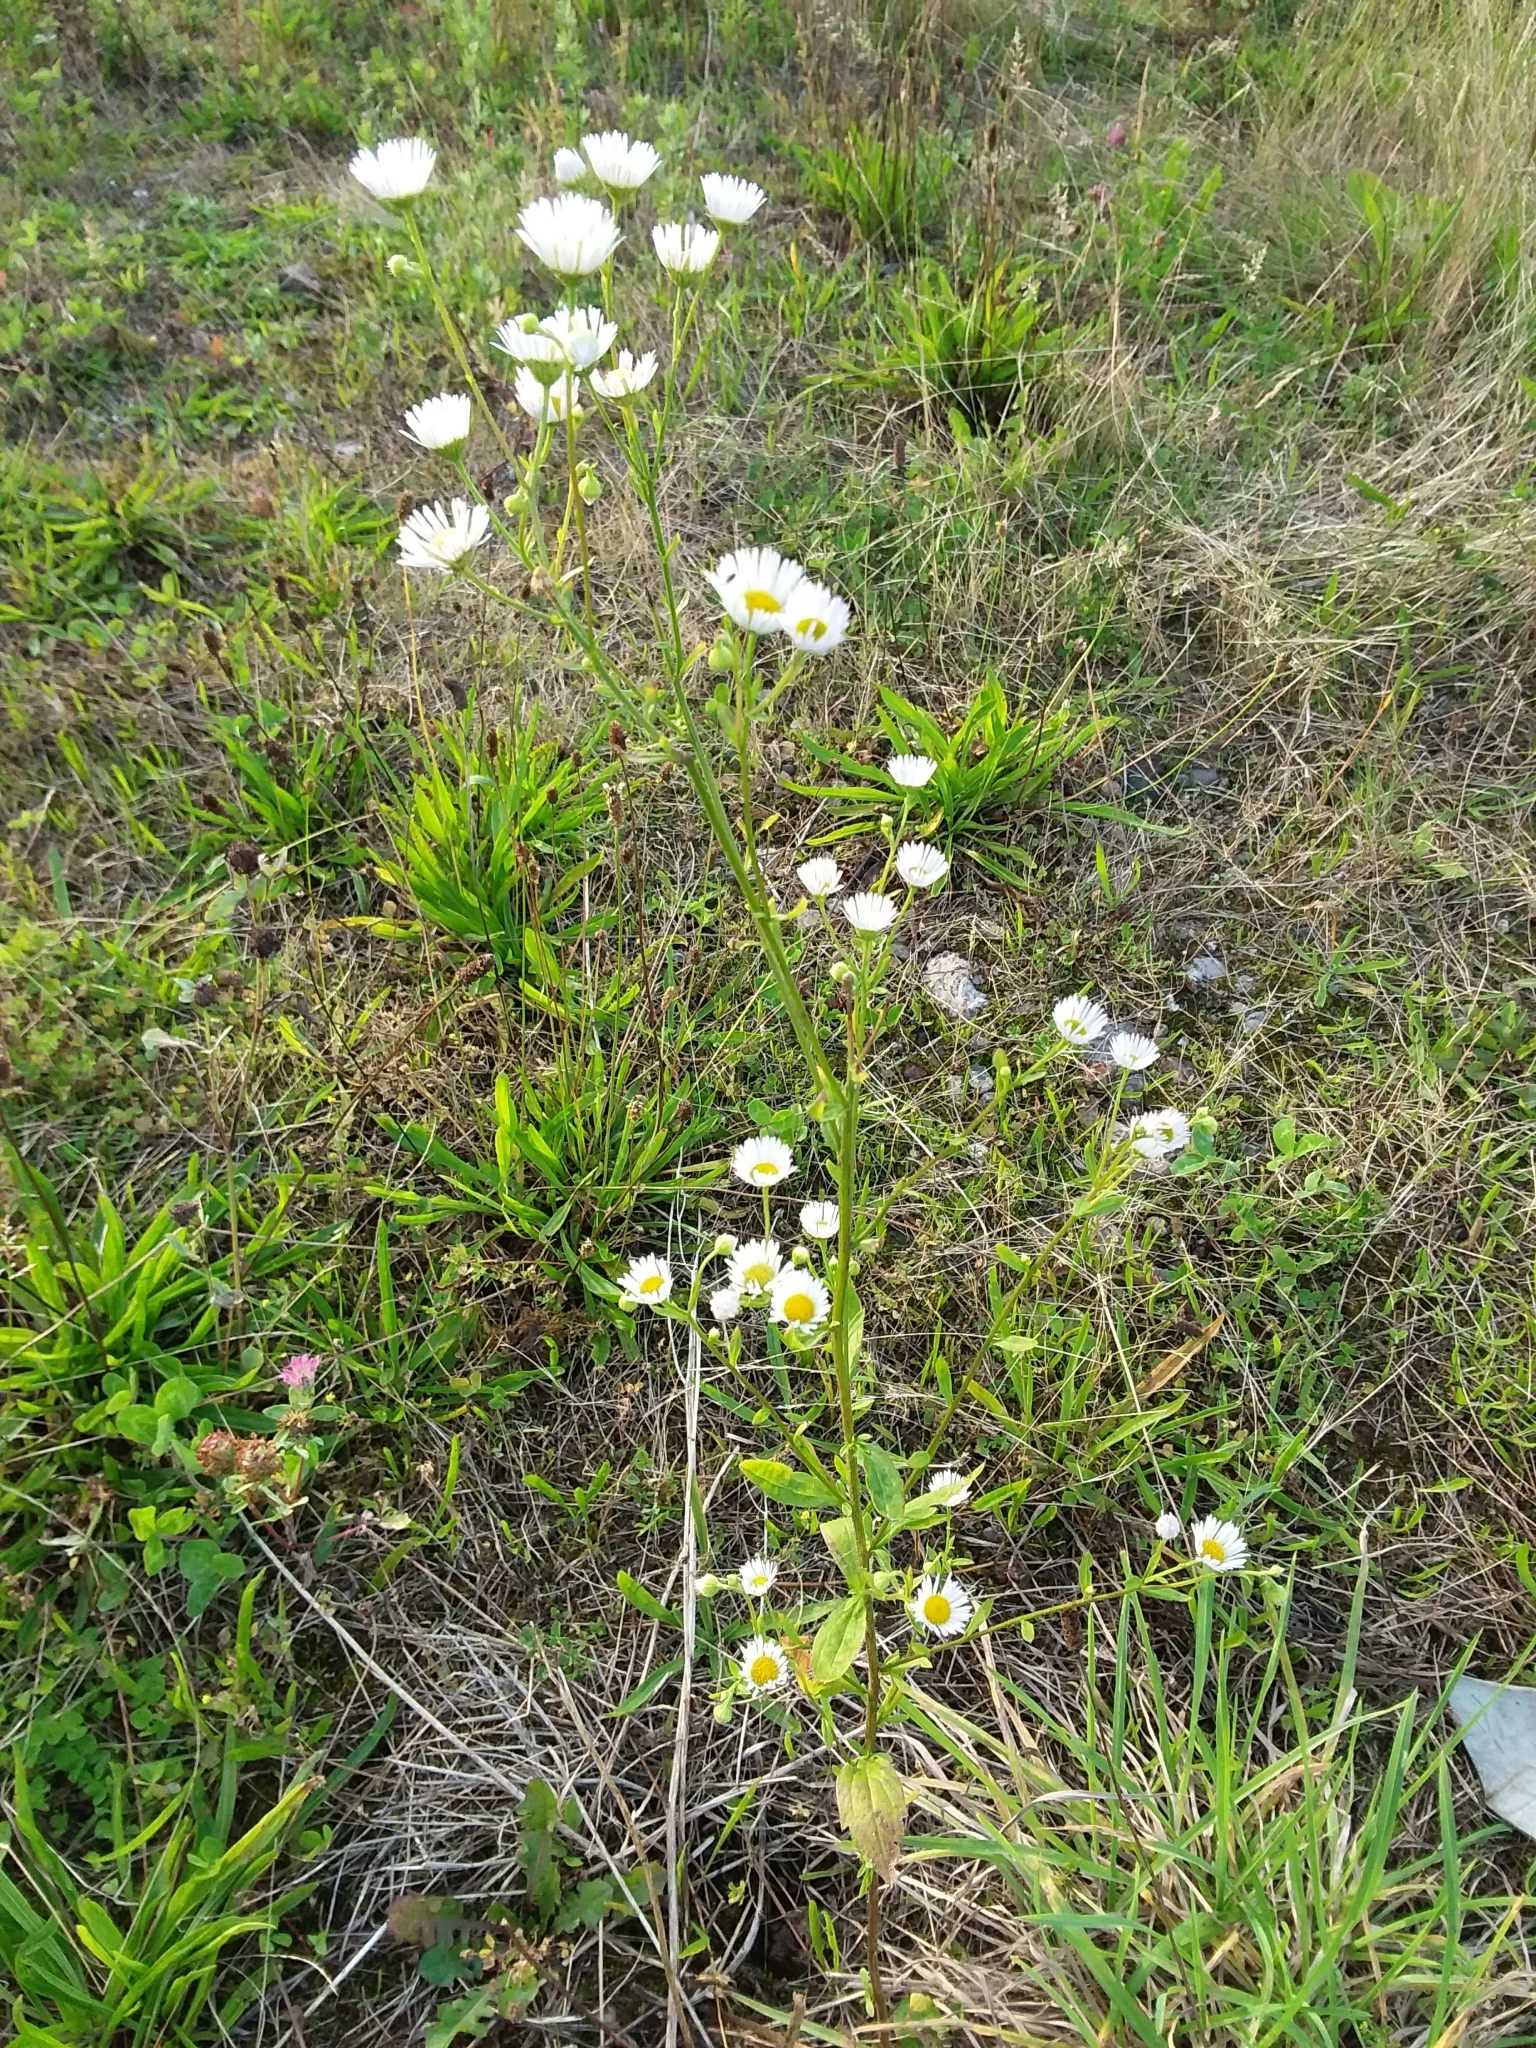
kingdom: Plantae
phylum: Tracheophyta
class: Magnoliopsida
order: Asterales
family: Asteraceae
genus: Erigeron
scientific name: Erigeron annuus
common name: Tall fleabane
